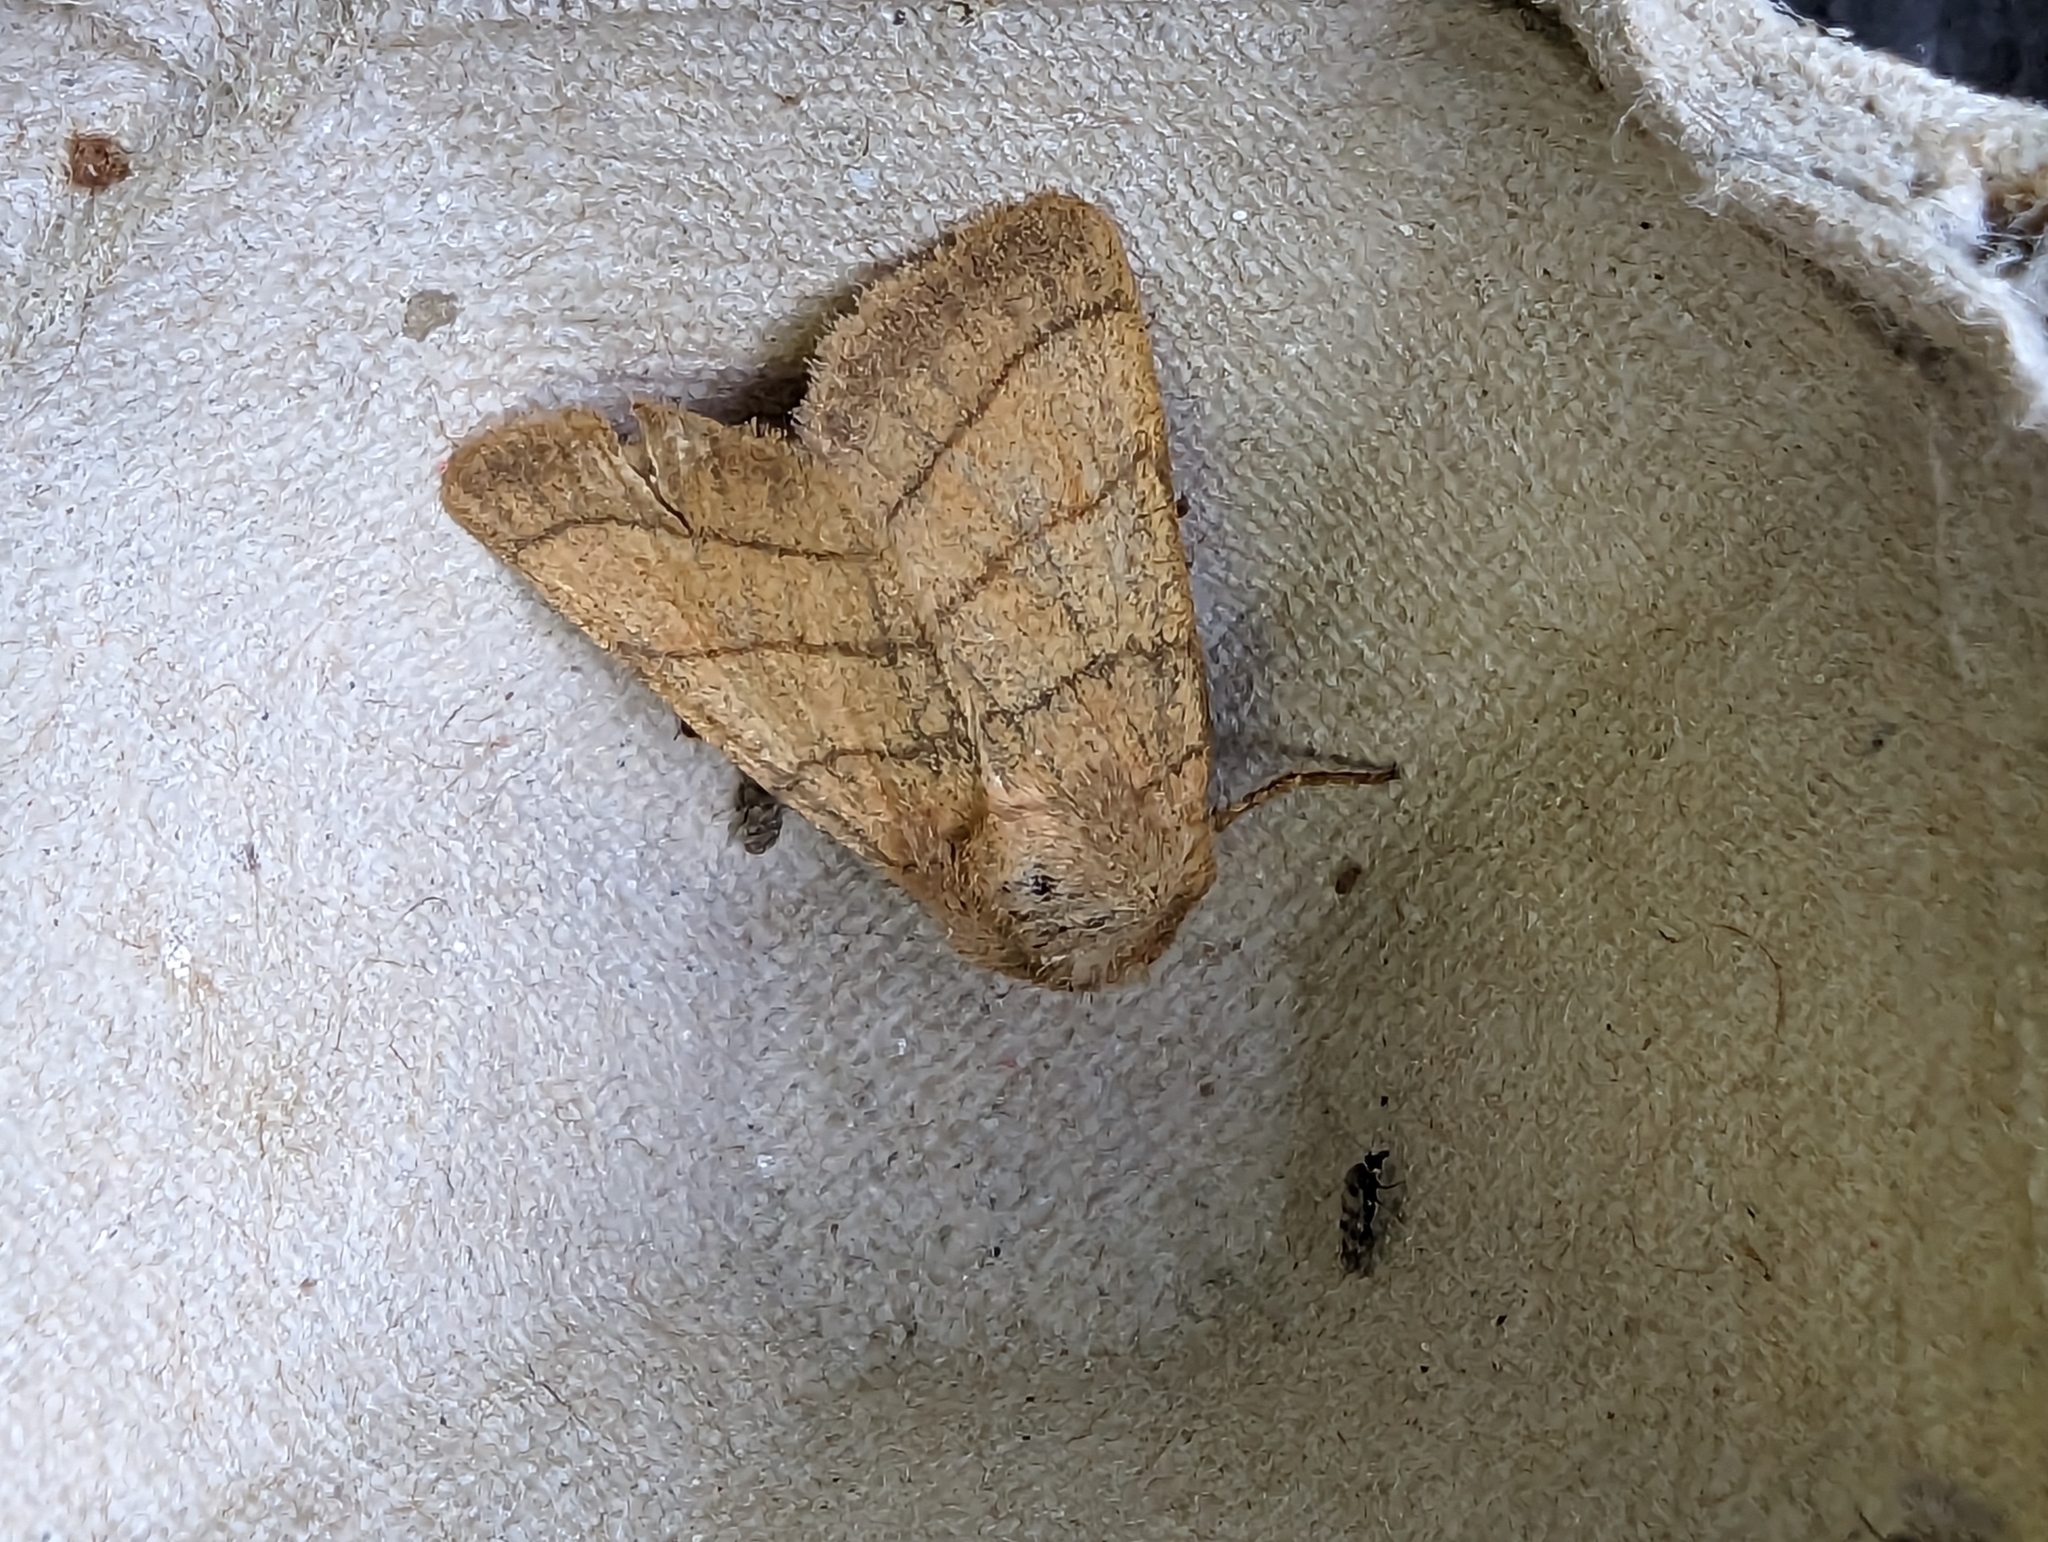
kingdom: Animalia
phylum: Arthropoda
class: Insecta
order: Lepidoptera
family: Noctuidae
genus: Charanyca
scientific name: Charanyca trigrammica
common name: Treble lines
